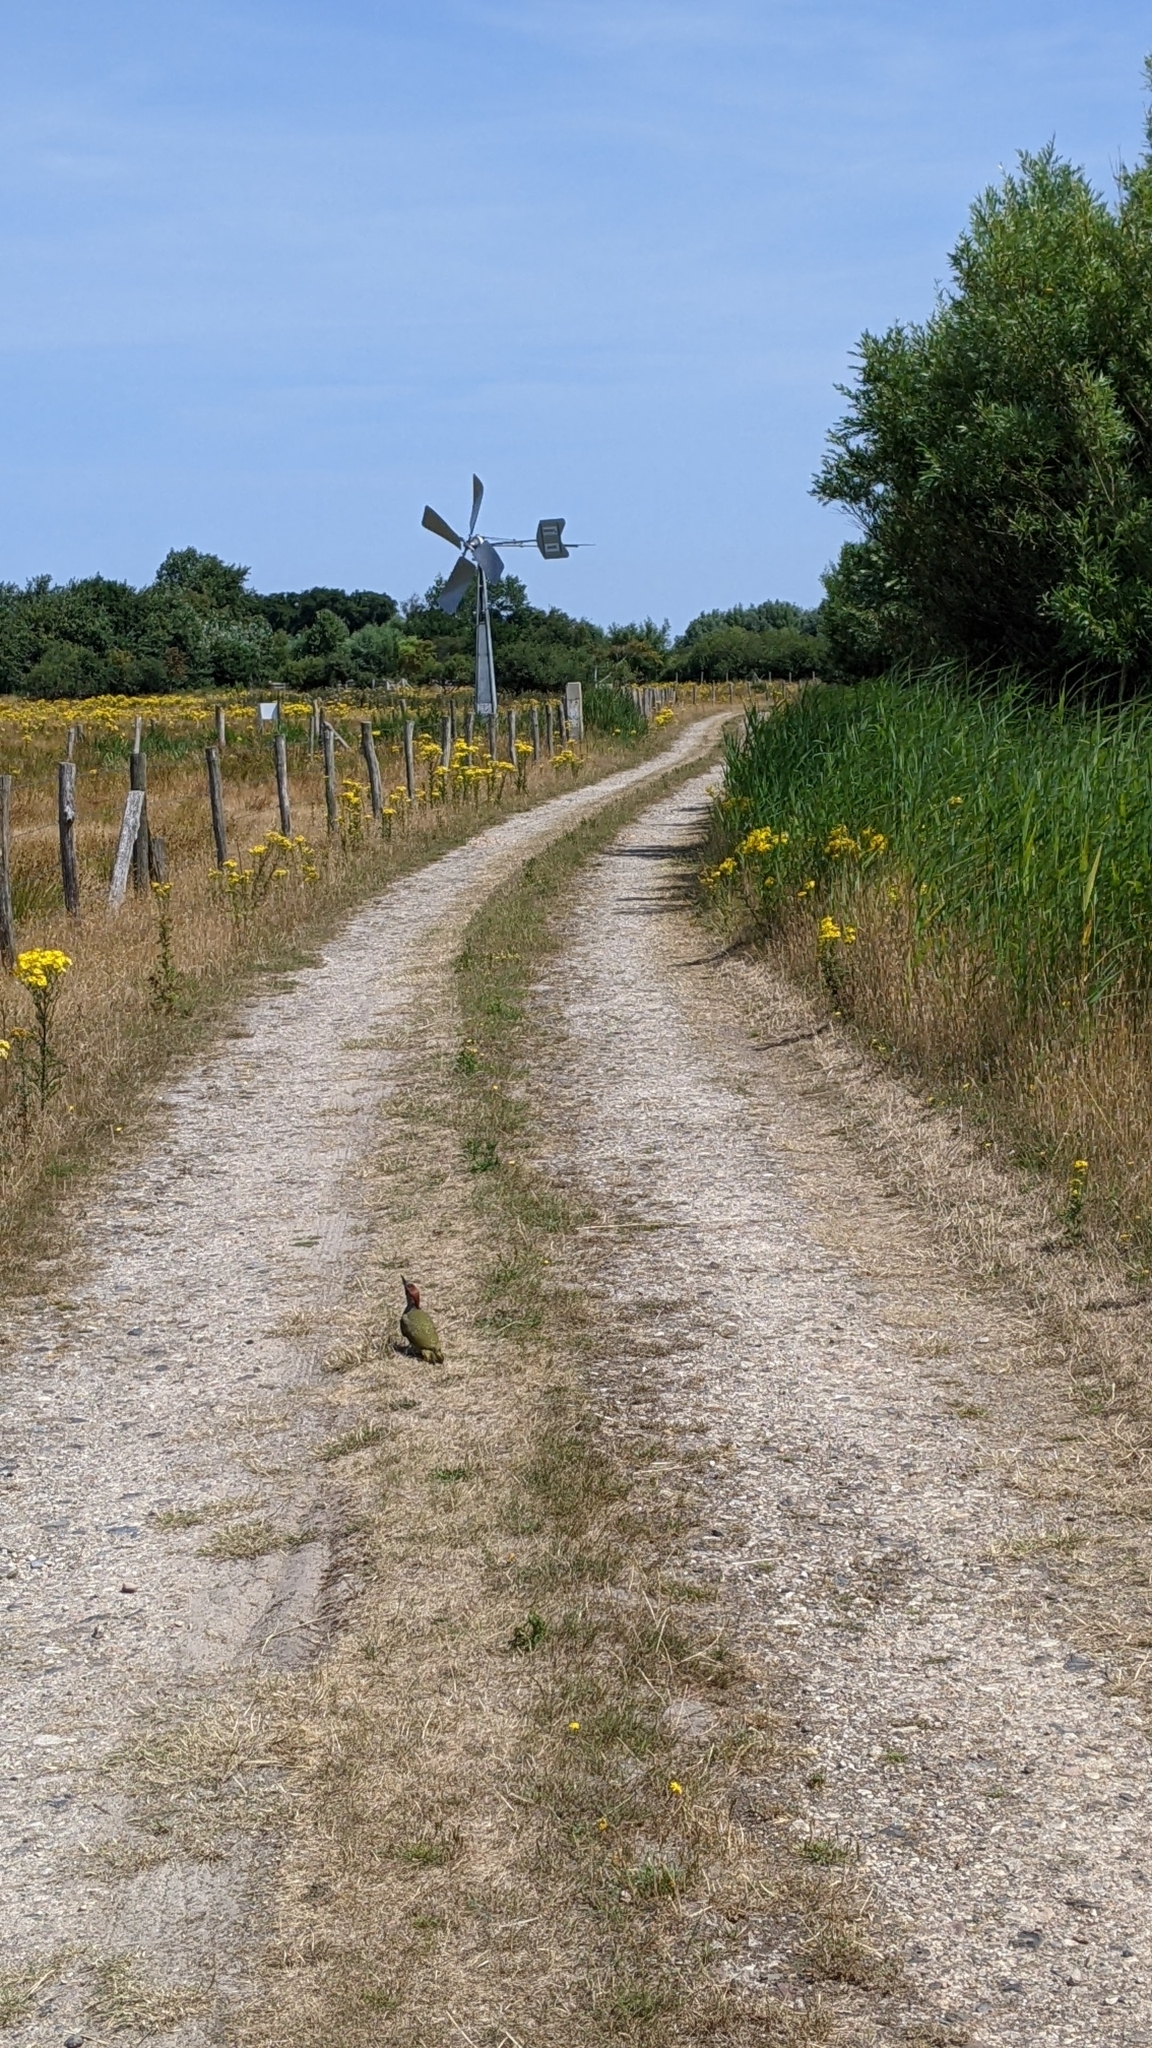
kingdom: Animalia
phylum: Chordata
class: Aves
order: Piciformes
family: Picidae
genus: Picus
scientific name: Picus viridis
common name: European green woodpecker
